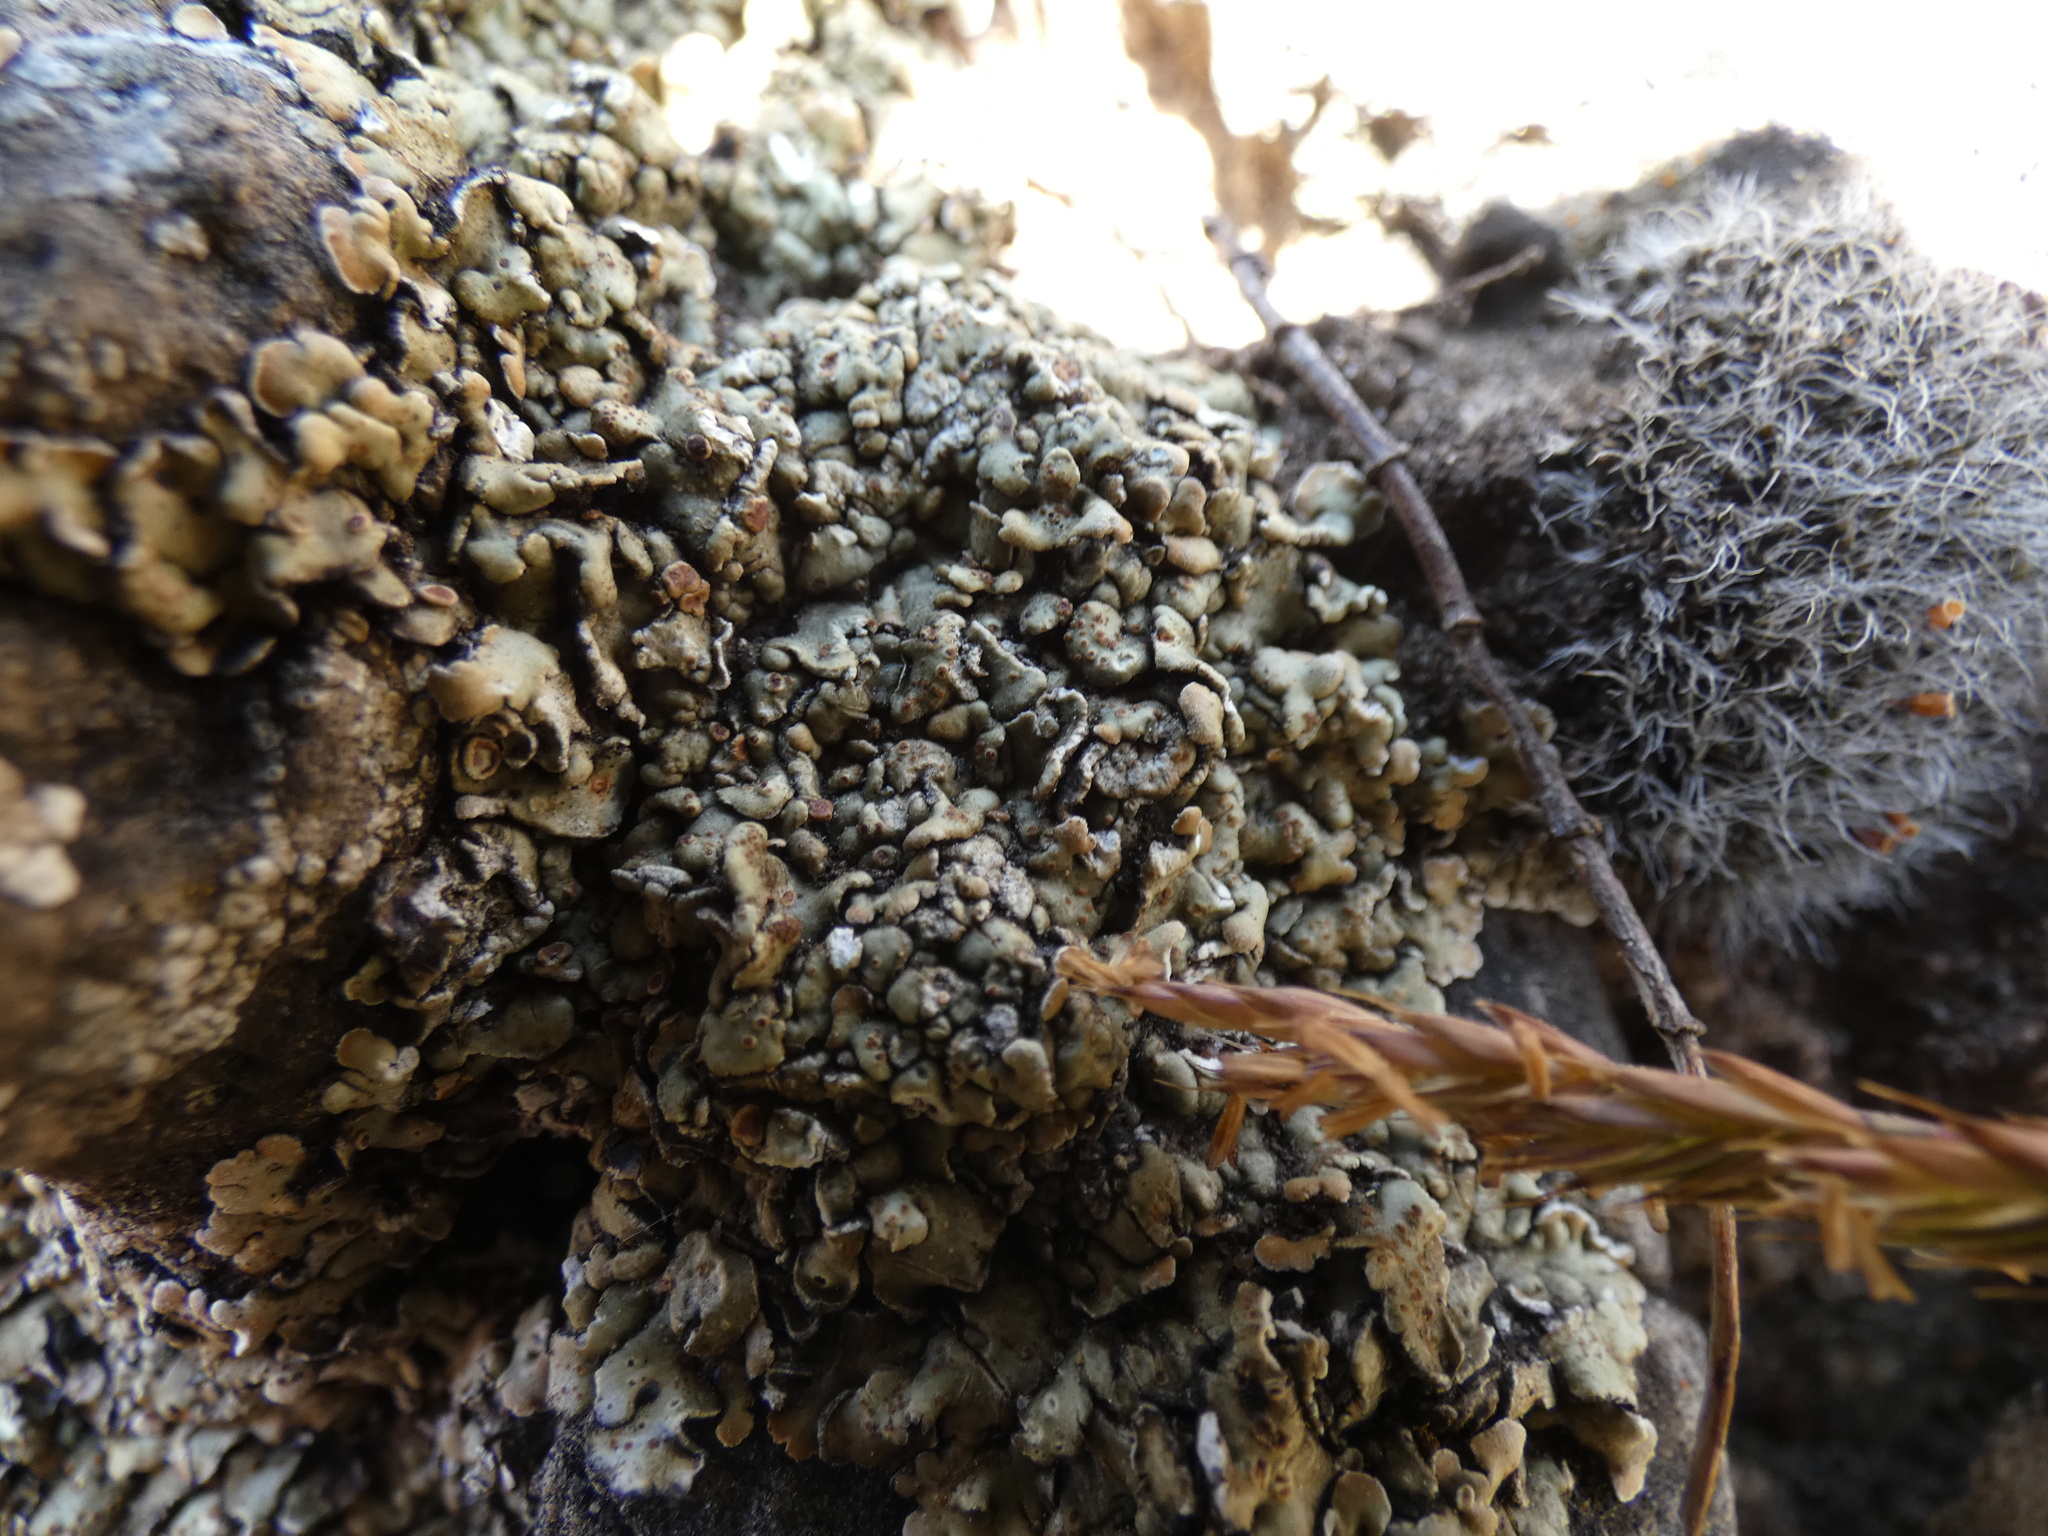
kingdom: Fungi
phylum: Ascomycota
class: Lecanoromycetes
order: Lecanorales
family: Stereocaulaceae
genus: Squamarina
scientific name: Squamarina cartilaginea
